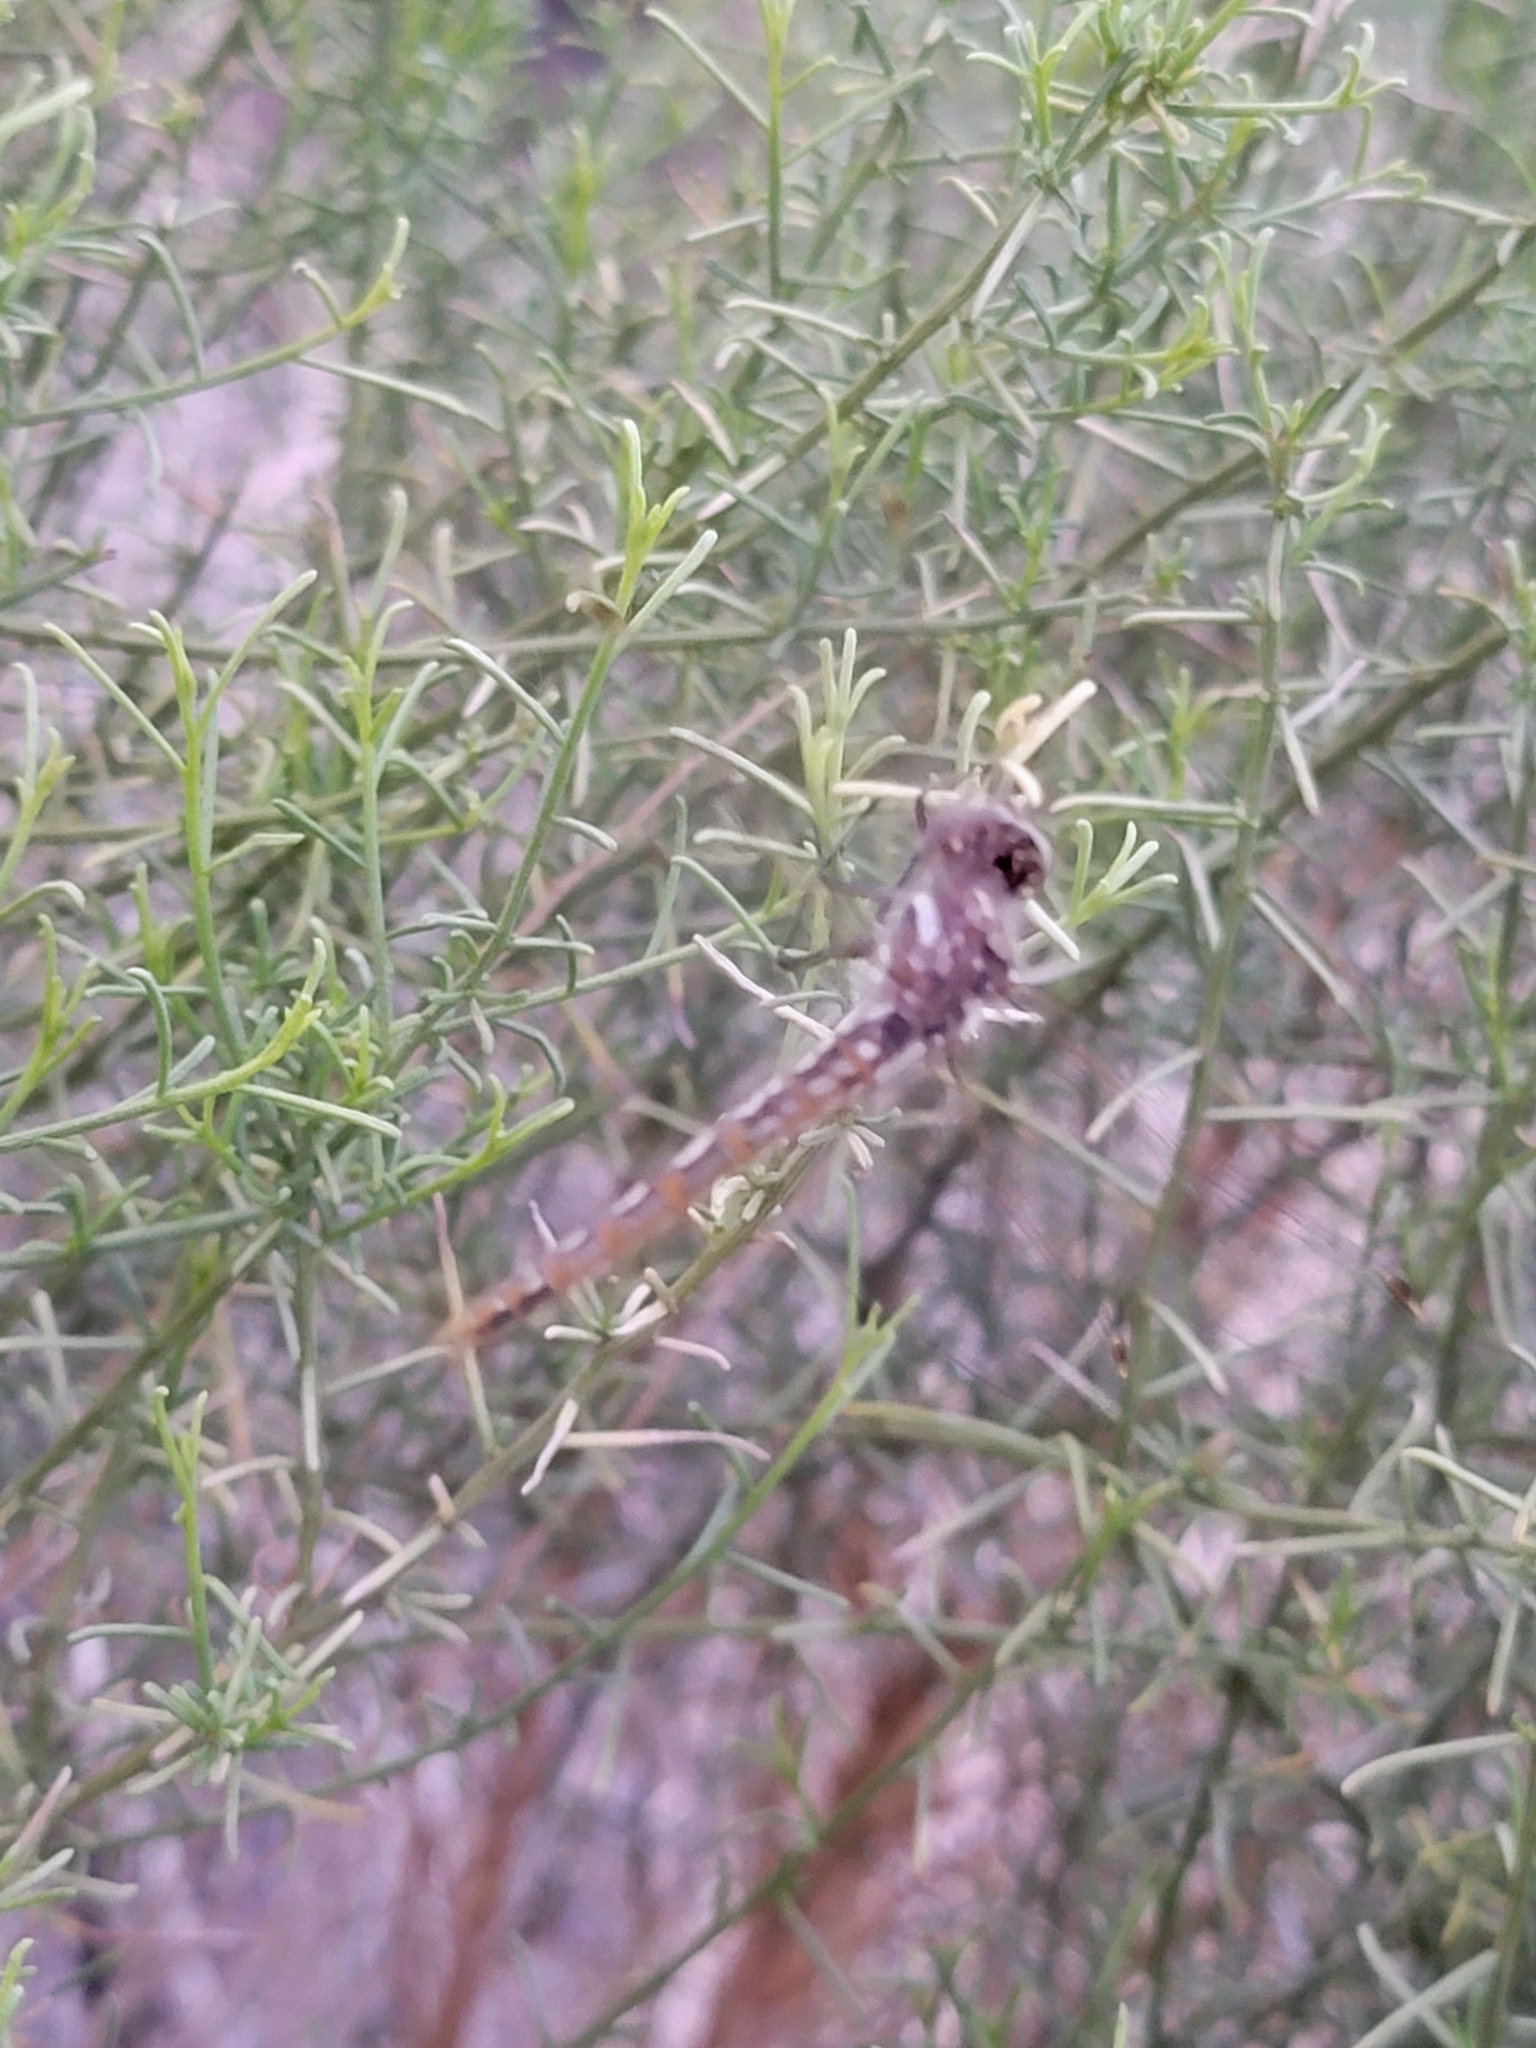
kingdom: Animalia
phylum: Arthropoda
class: Insecta
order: Odonata
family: Libellulidae
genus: Sympetrum
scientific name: Sympetrum corruptum
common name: Variegated meadowhawk
